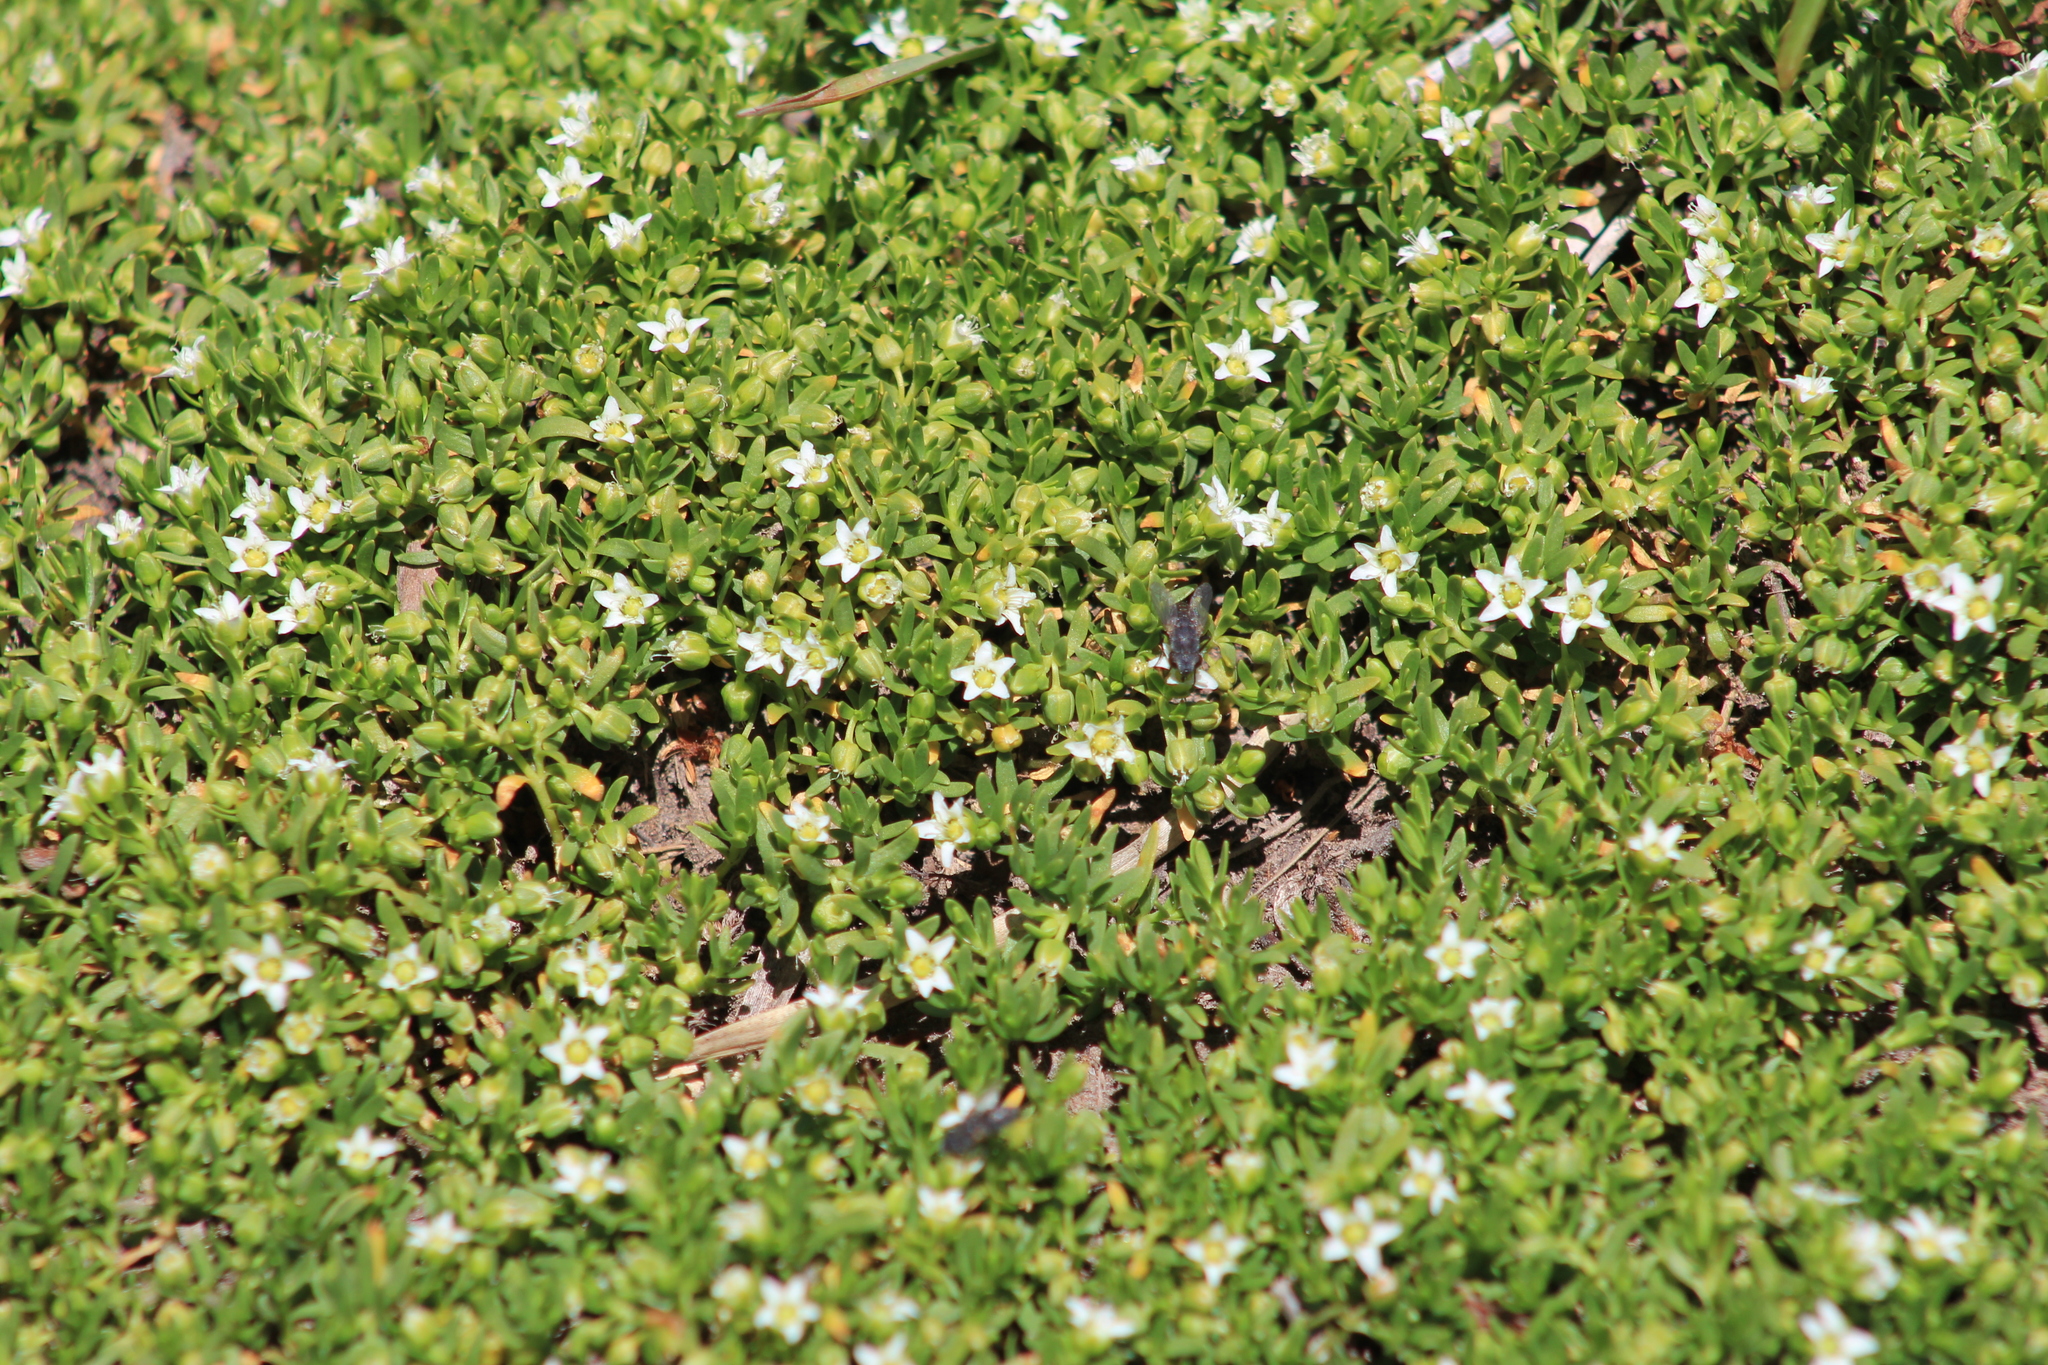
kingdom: Plantae
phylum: Tracheophyta
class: Magnoliopsida
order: Caryophyllales
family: Caryophyllaceae
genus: Arenaria
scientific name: Arenaria serpens
